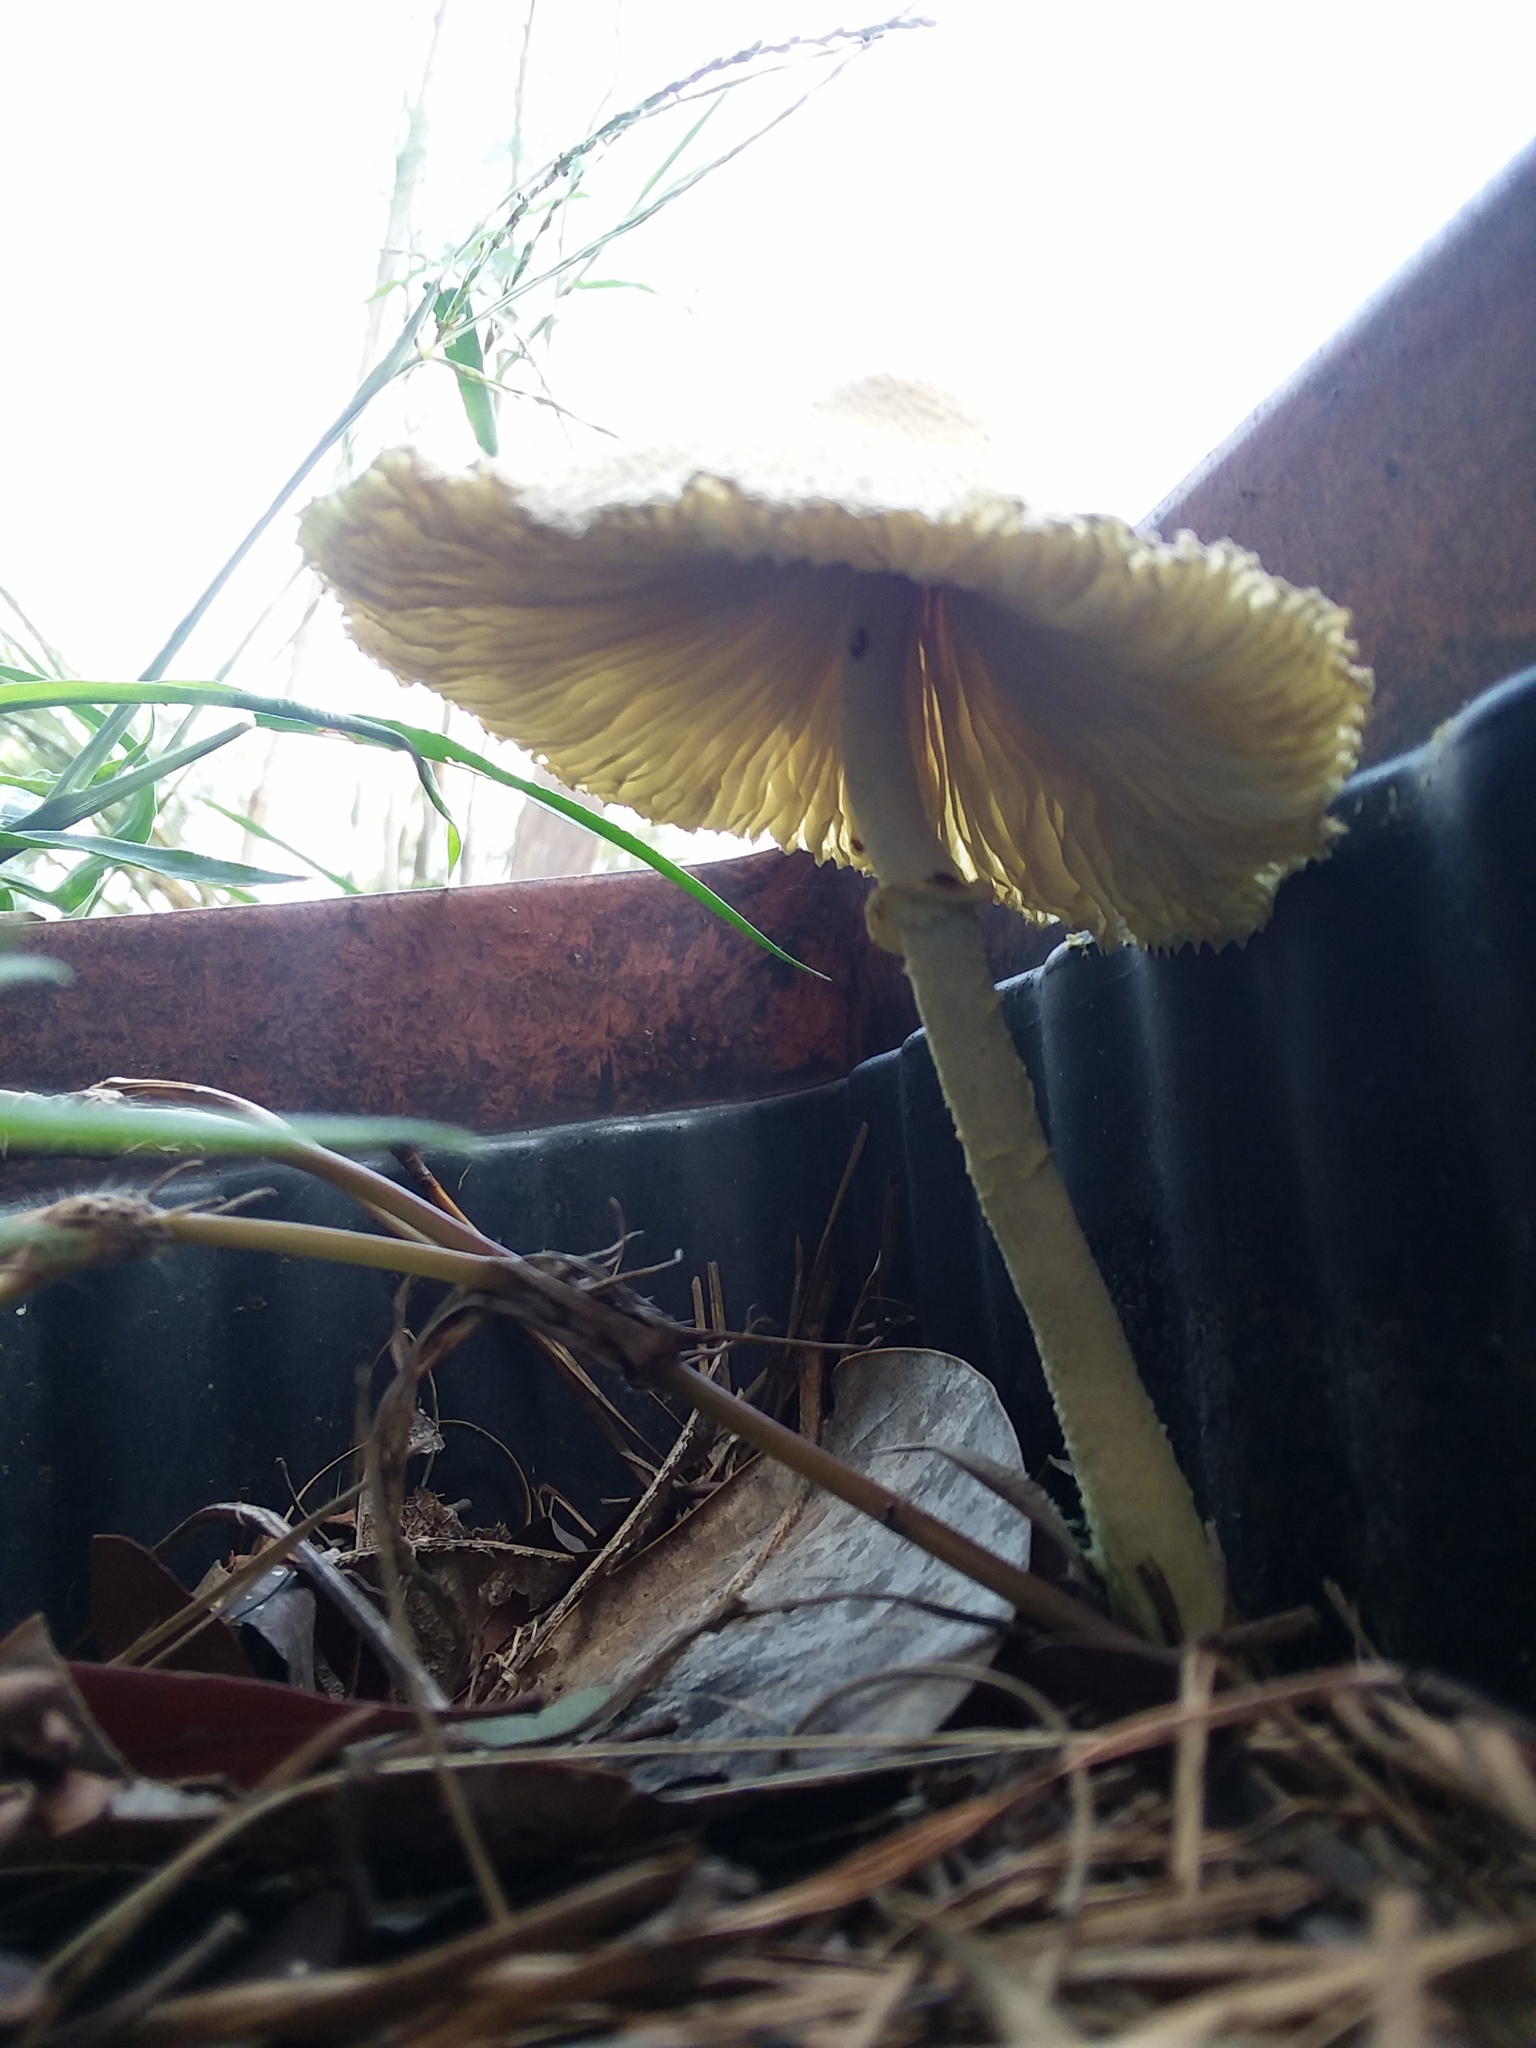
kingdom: Fungi
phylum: Basidiomycota
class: Agaricomycetes
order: Agaricales
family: Agaricaceae
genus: Leucocoprinus
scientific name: Leucocoprinus birnbaumii
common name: Plantpot dapperling
